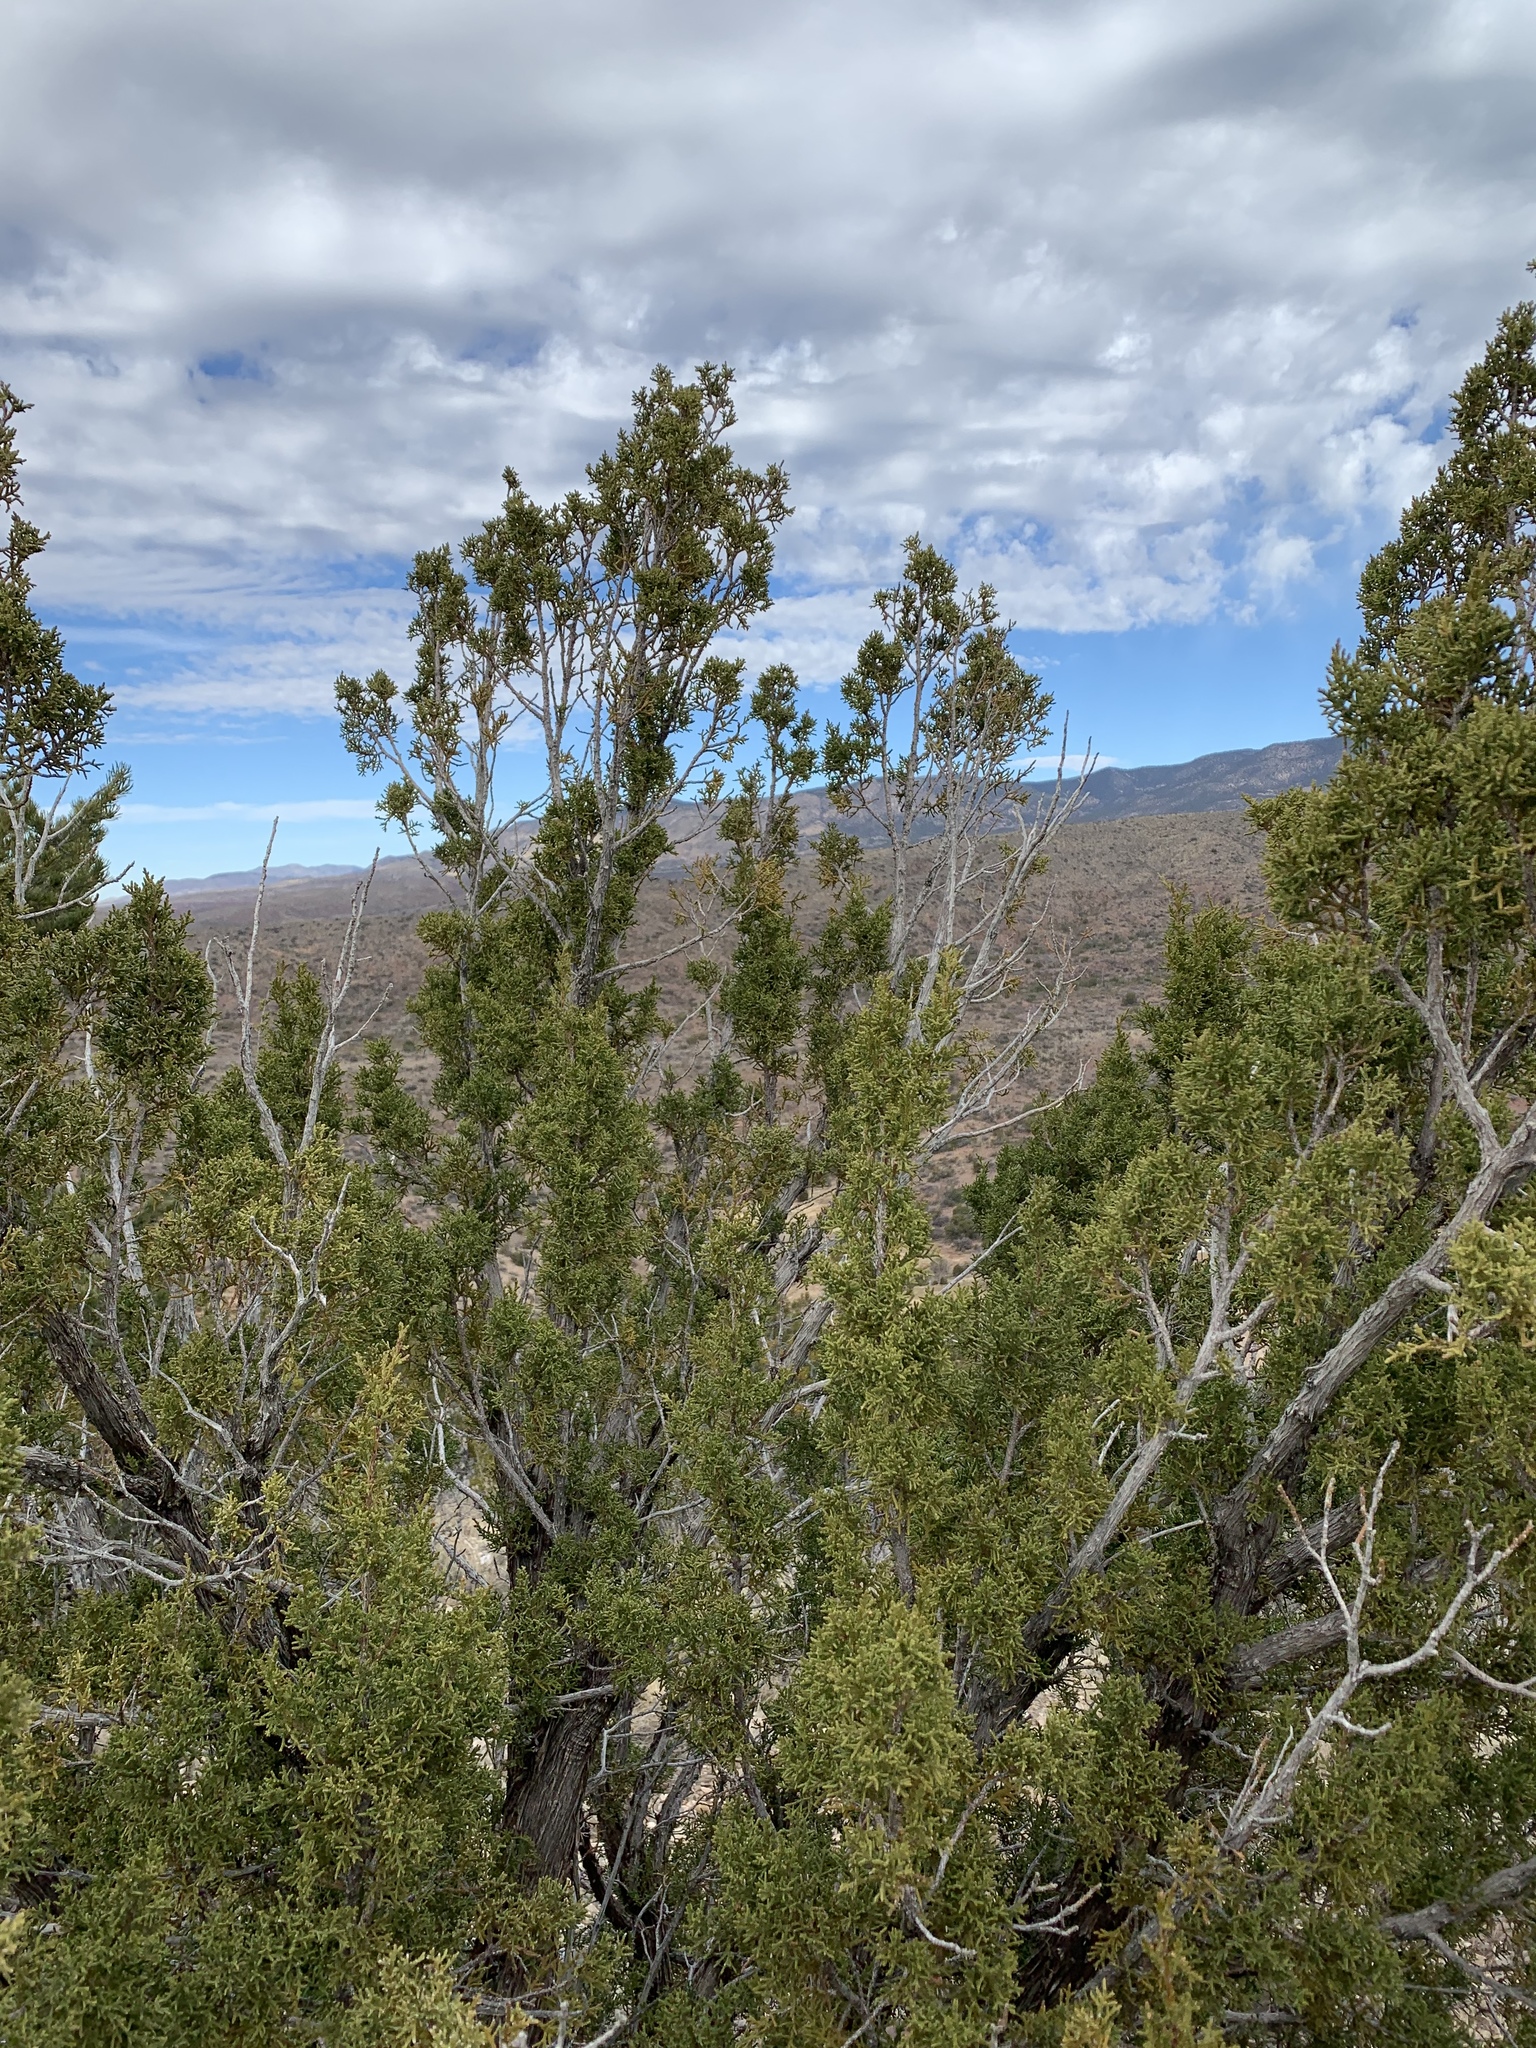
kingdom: Plantae
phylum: Tracheophyta
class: Pinopsida
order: Pinales
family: Cupressaceae
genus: Juniperus
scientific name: Juniperus monosperma
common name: One-seed juniper
